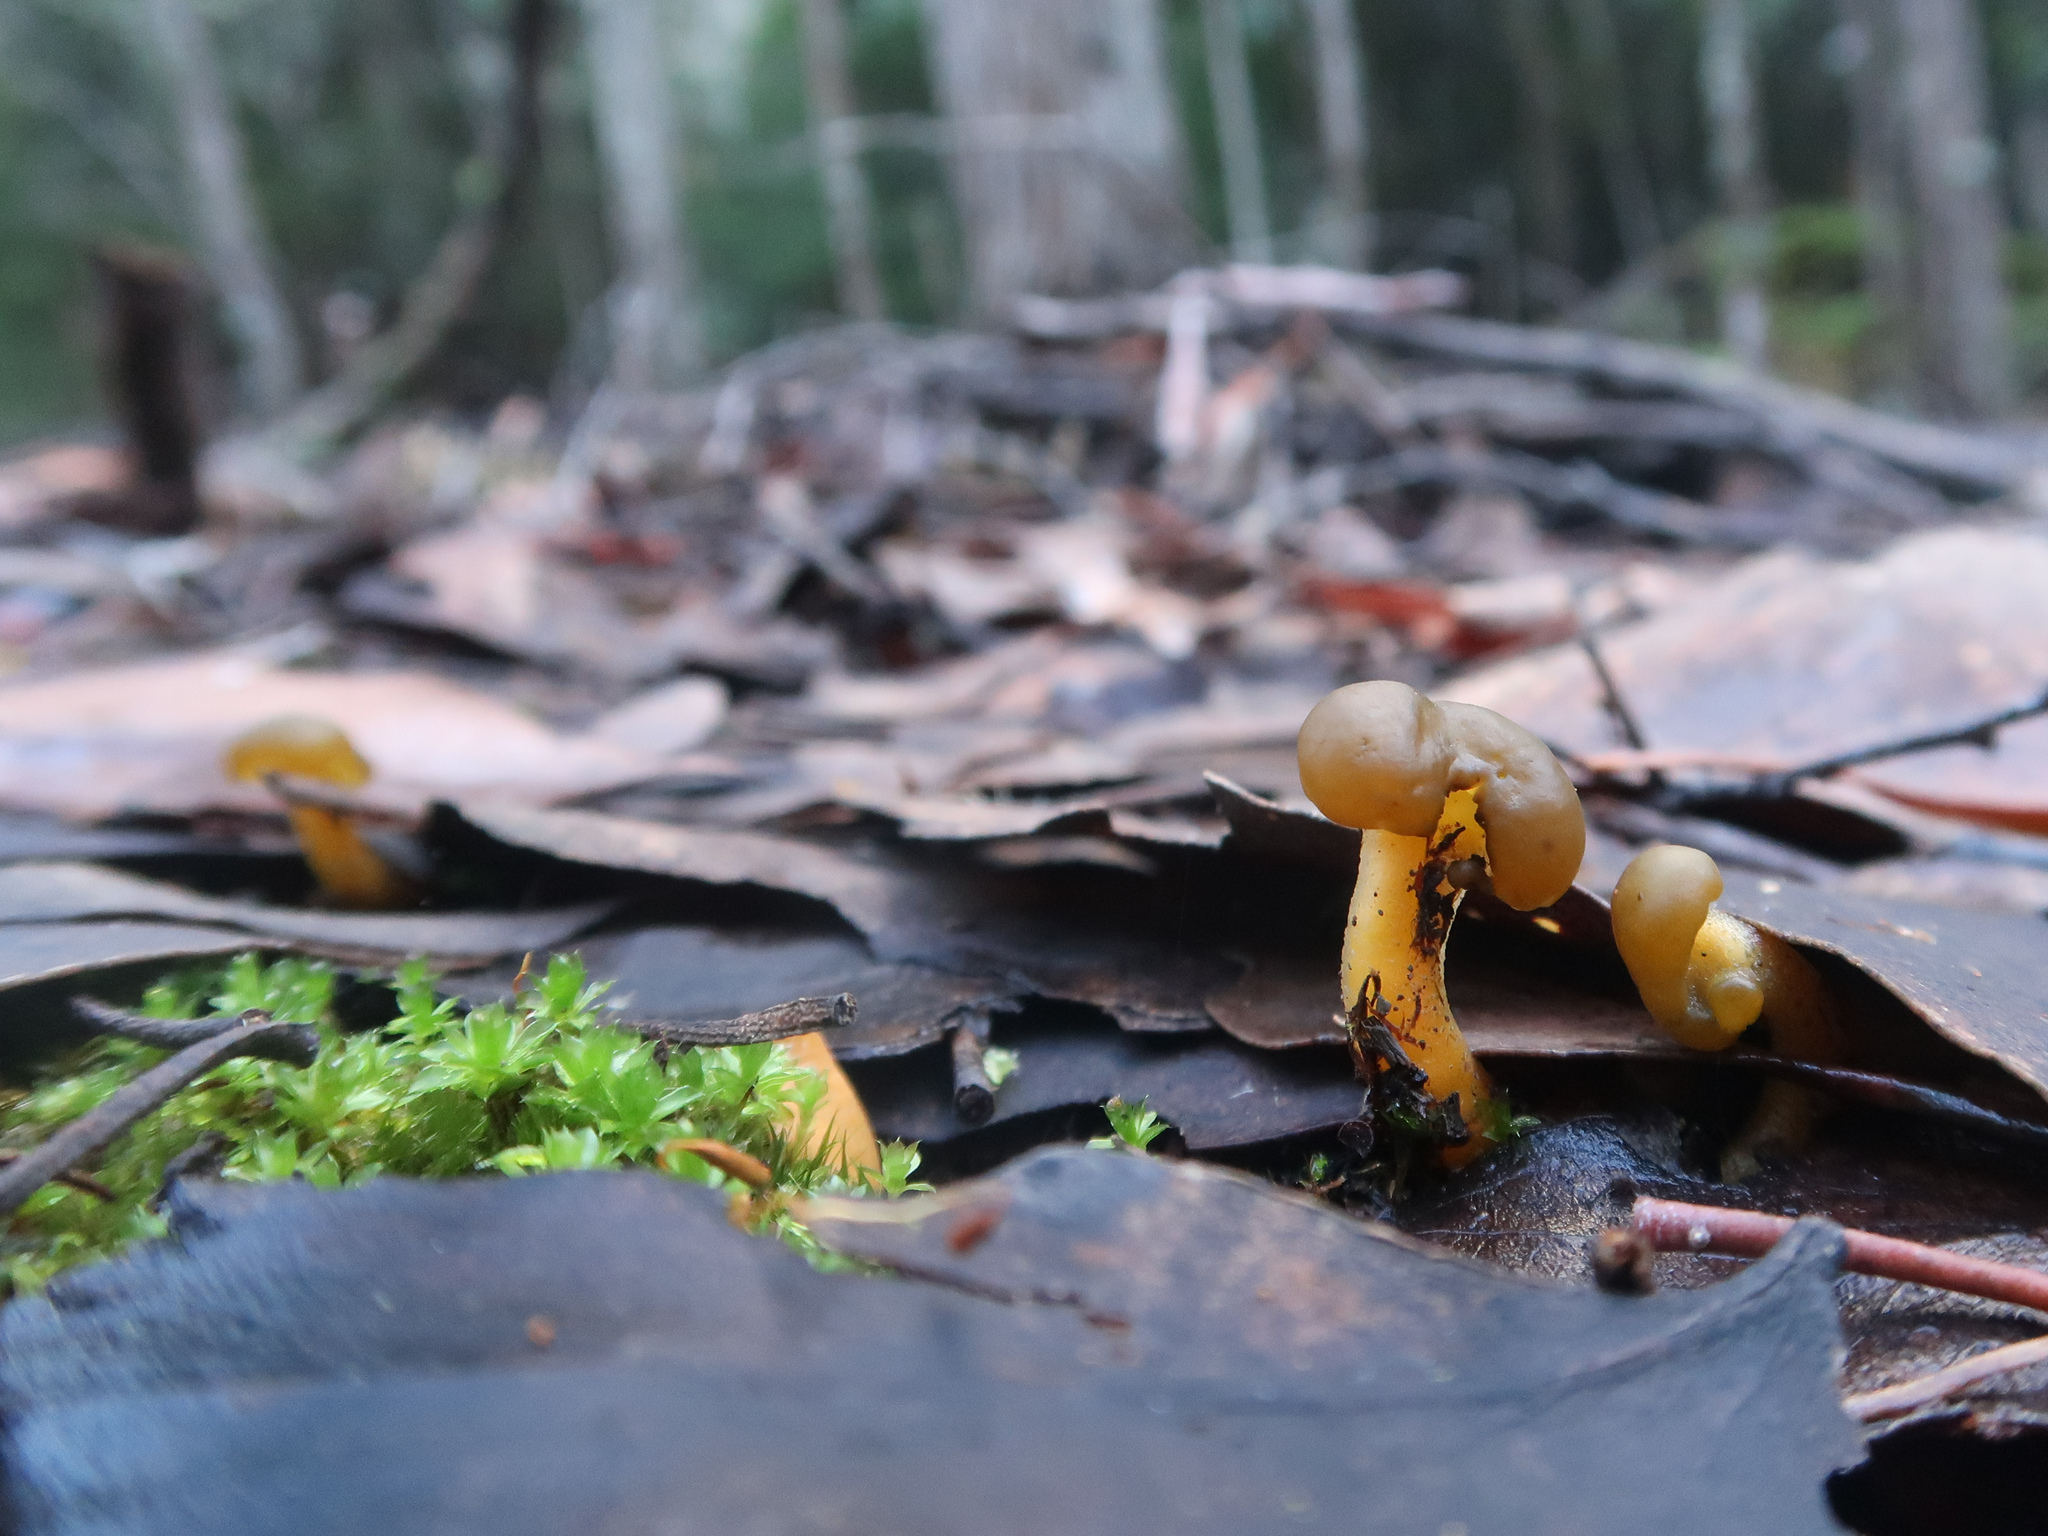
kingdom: Fungi
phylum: Ascomycota
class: Leotiomycetes
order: Leotiales
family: Leotiaceae
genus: Leotia
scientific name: Leotia lubrica
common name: Jellybaby
